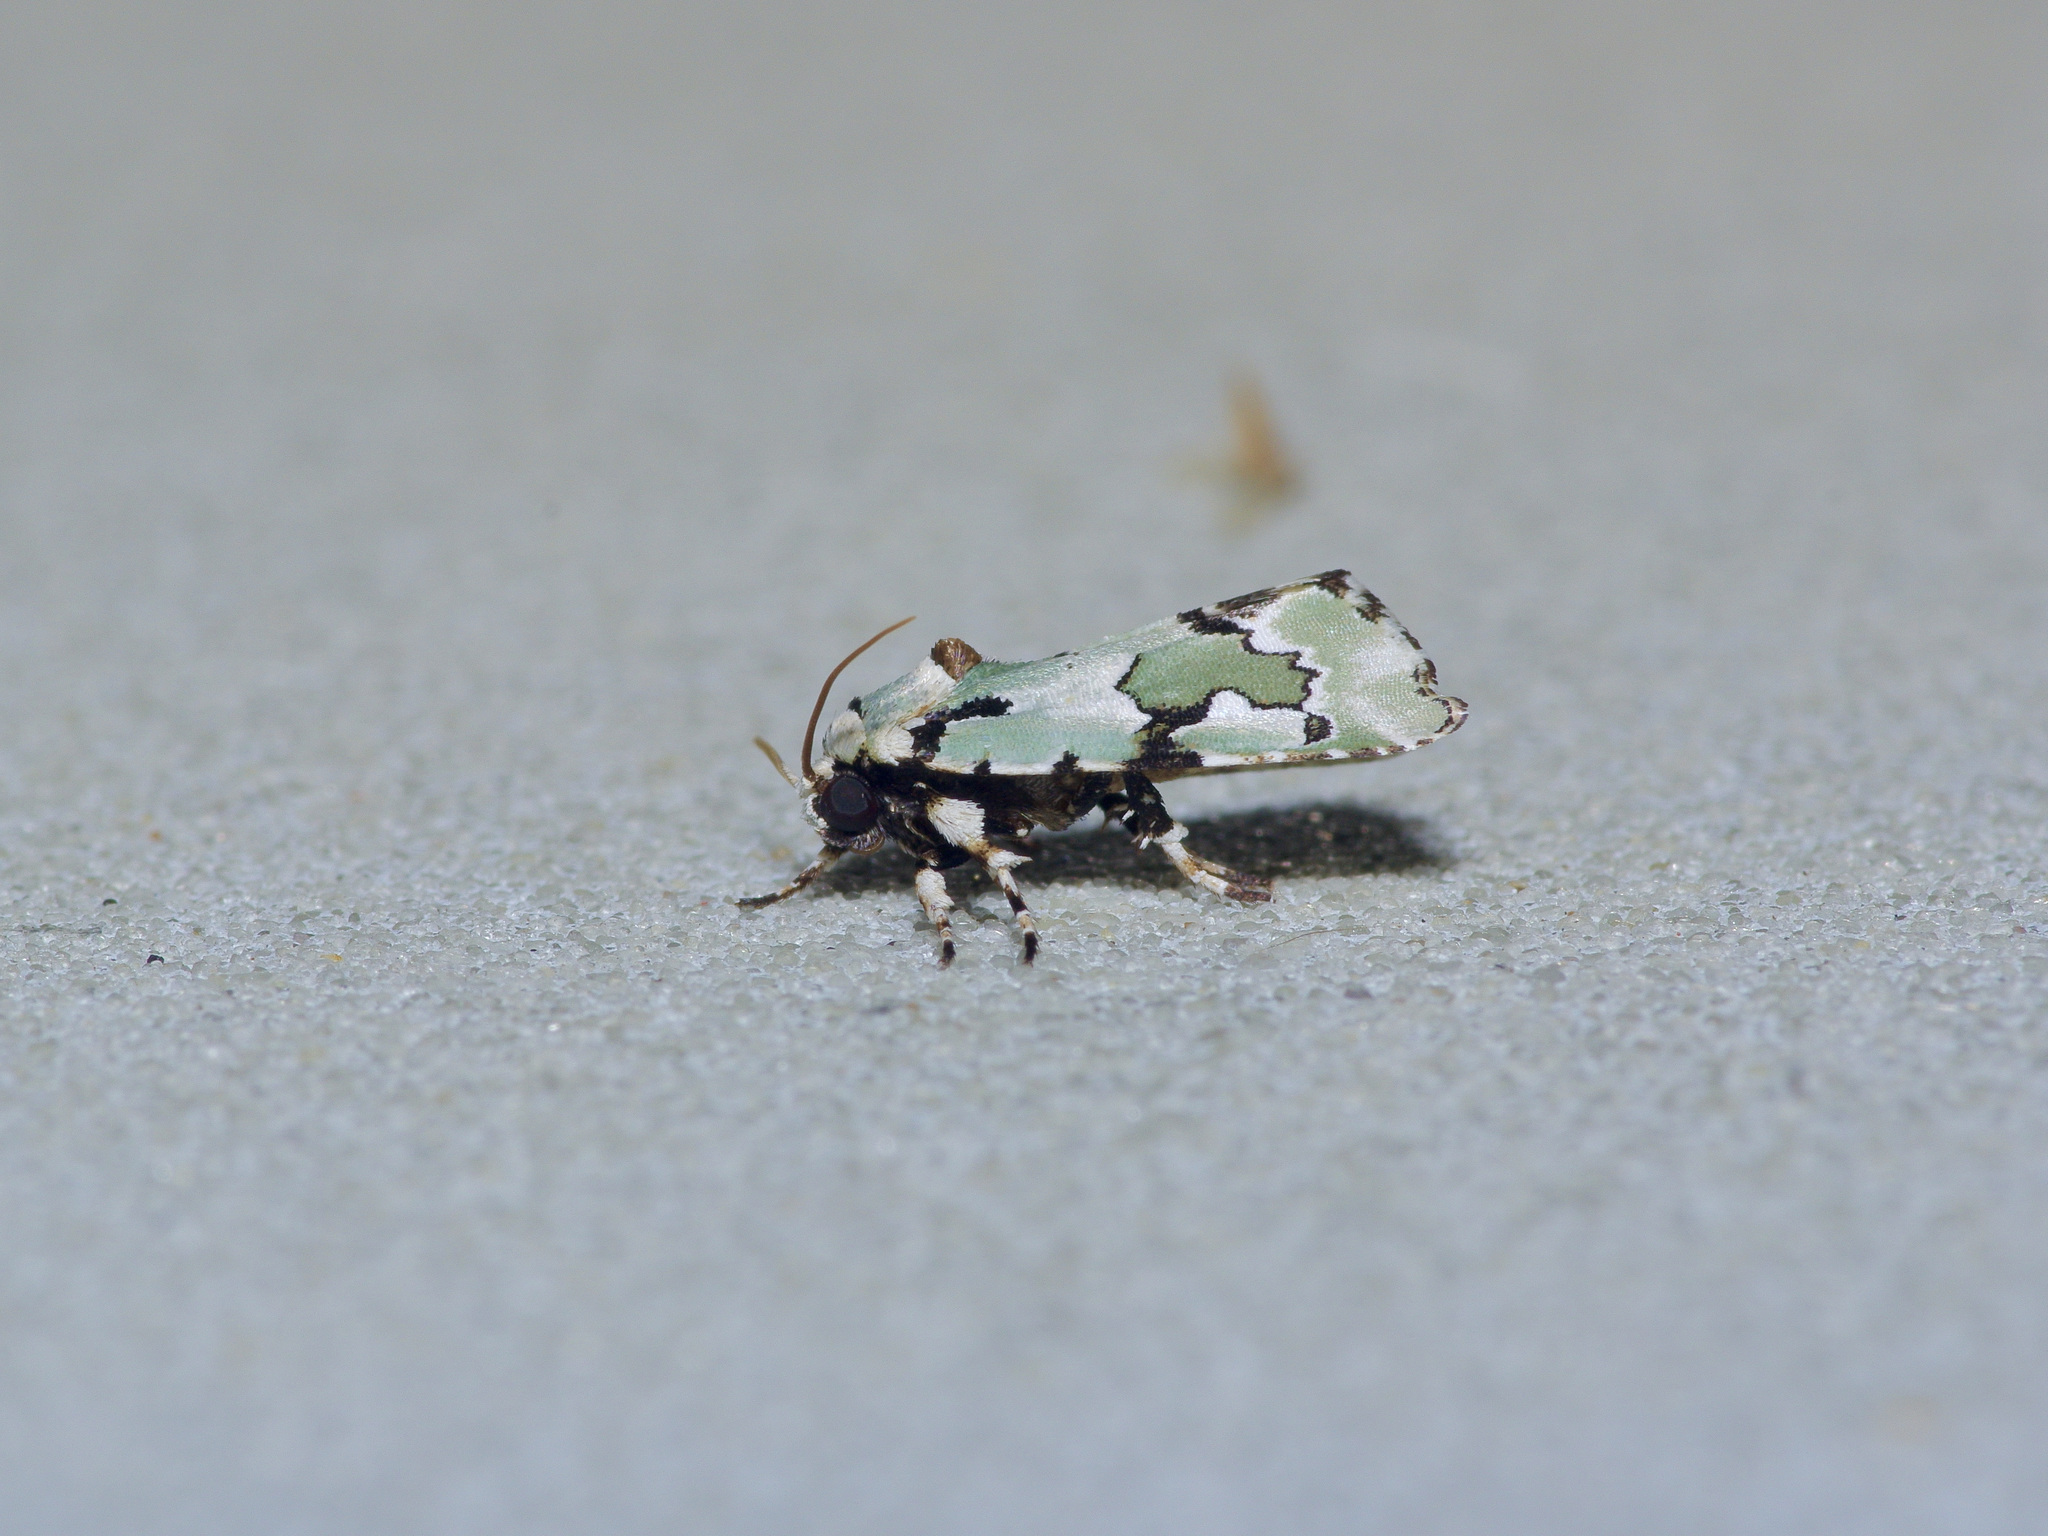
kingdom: Animalia
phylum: Arthropoda
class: Insecta
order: Lepidoptera
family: Noctuidae
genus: Emarginea
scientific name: Emarginea percara
